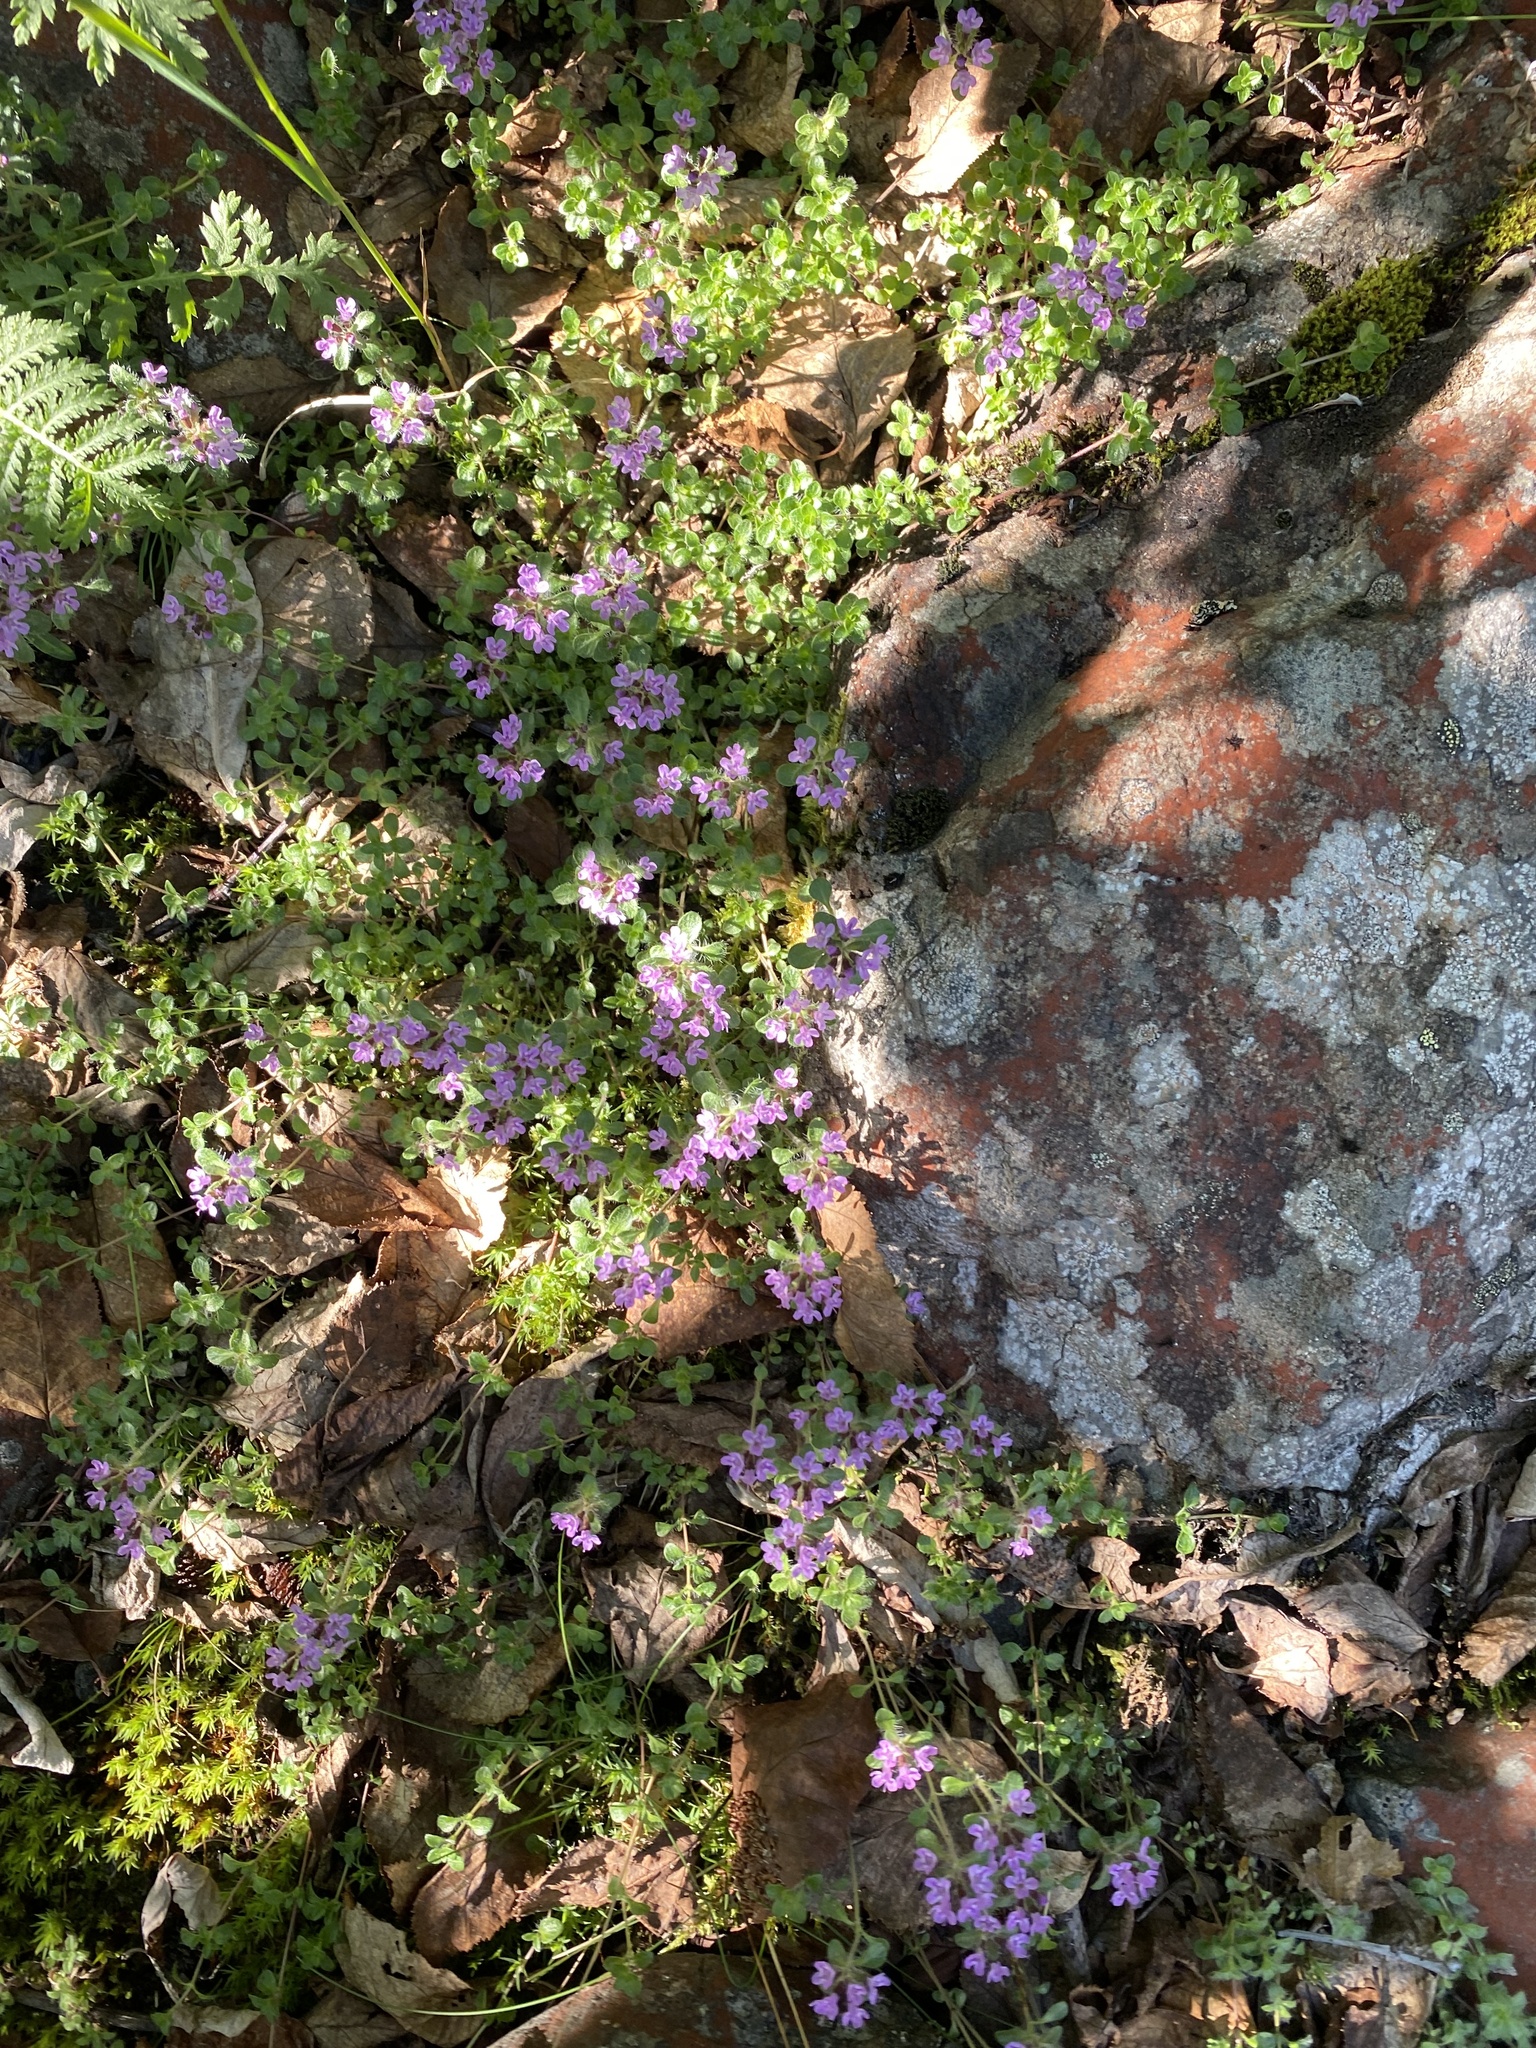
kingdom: Plantae
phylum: Tracheophyta
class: Magnoliopsida
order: Lamiales
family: Lamiaceae
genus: Thymus
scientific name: Thymus reverdattoanus
